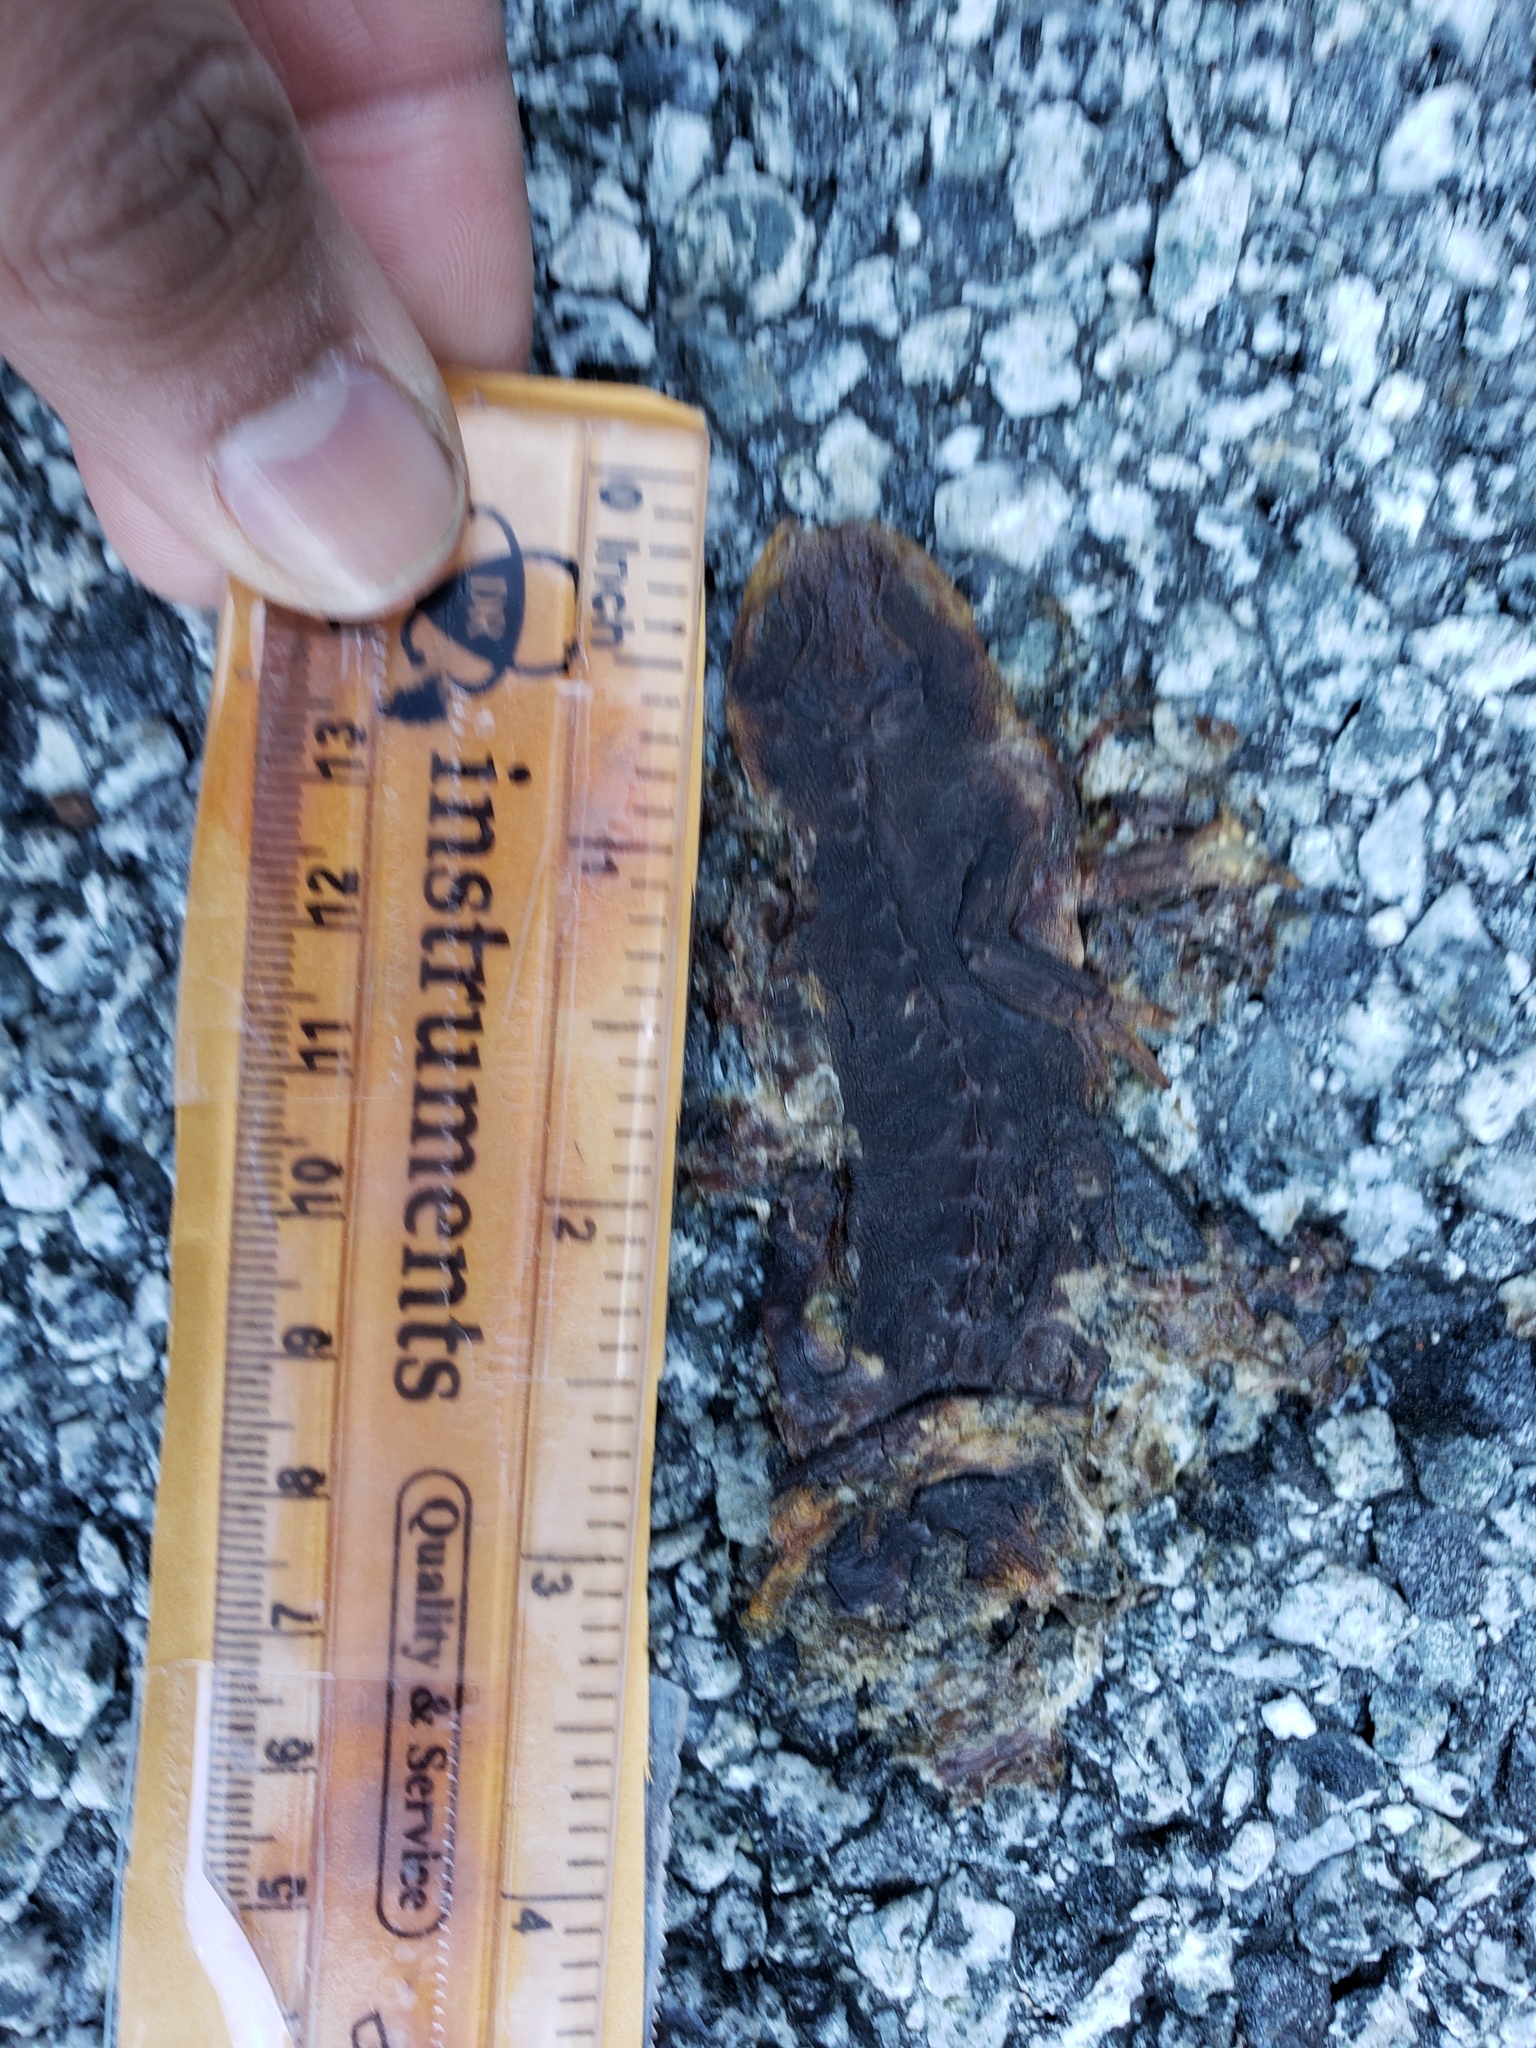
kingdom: Animalia
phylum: Chordata
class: Amphibia
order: Caudata
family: Salamandridae
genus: Taricha
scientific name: Taricha
